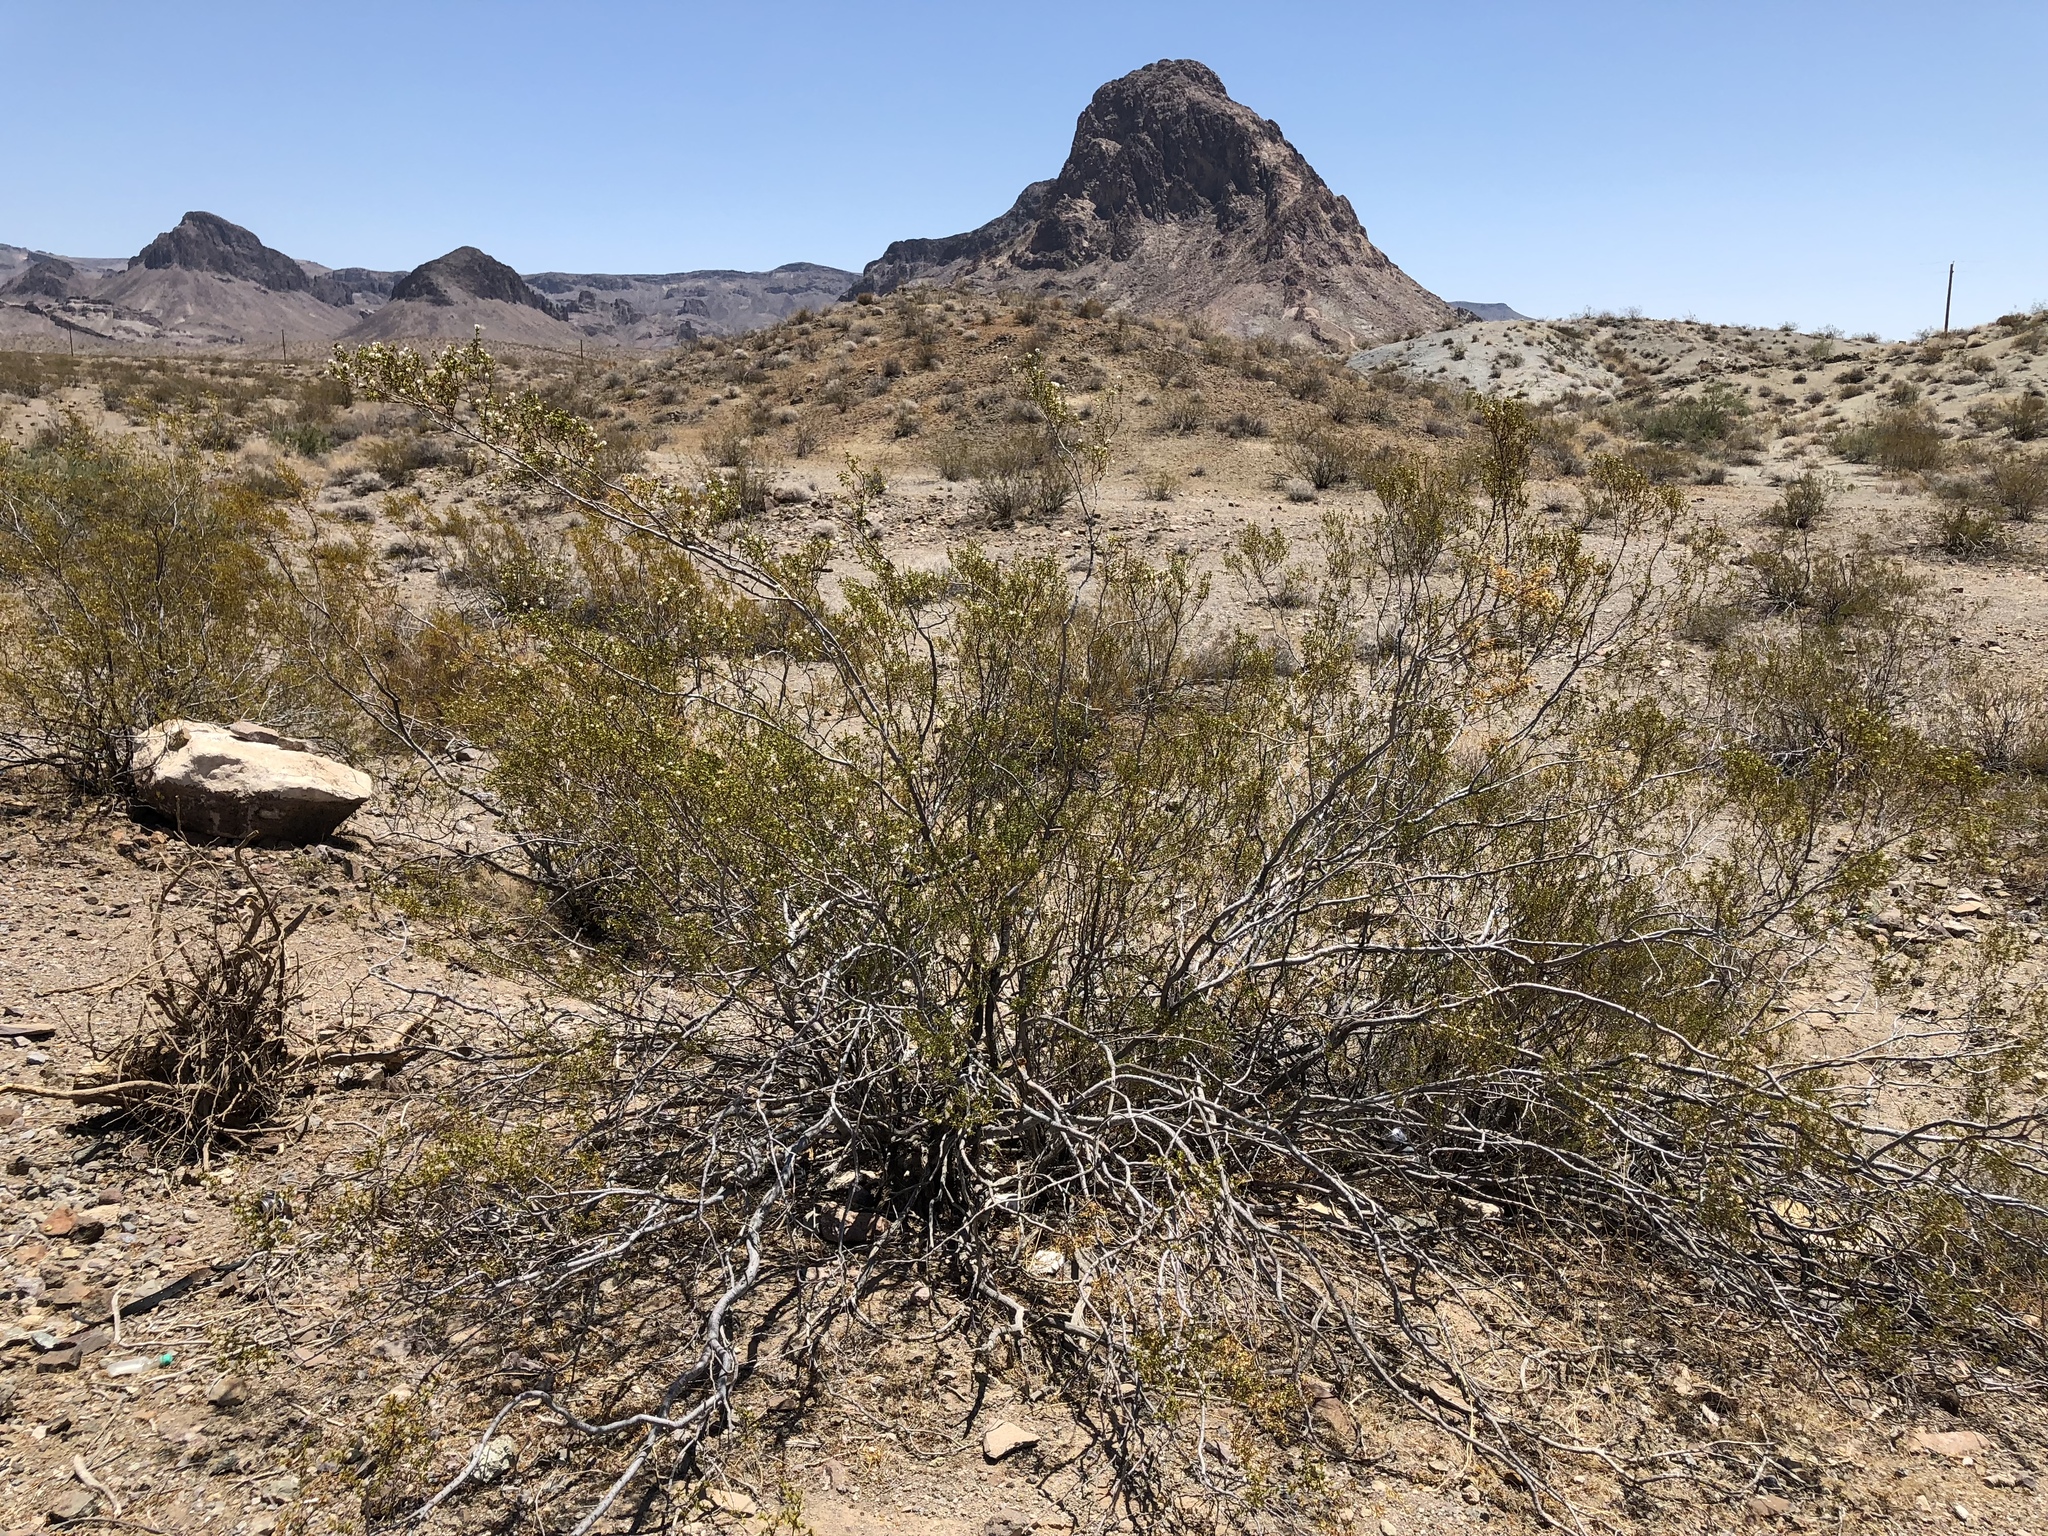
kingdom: Plantae
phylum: Tracheophyta
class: Magnoliopsida
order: Zygophyllales
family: Zygophyllaceae
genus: Larrea
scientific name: Larrea tridentata
